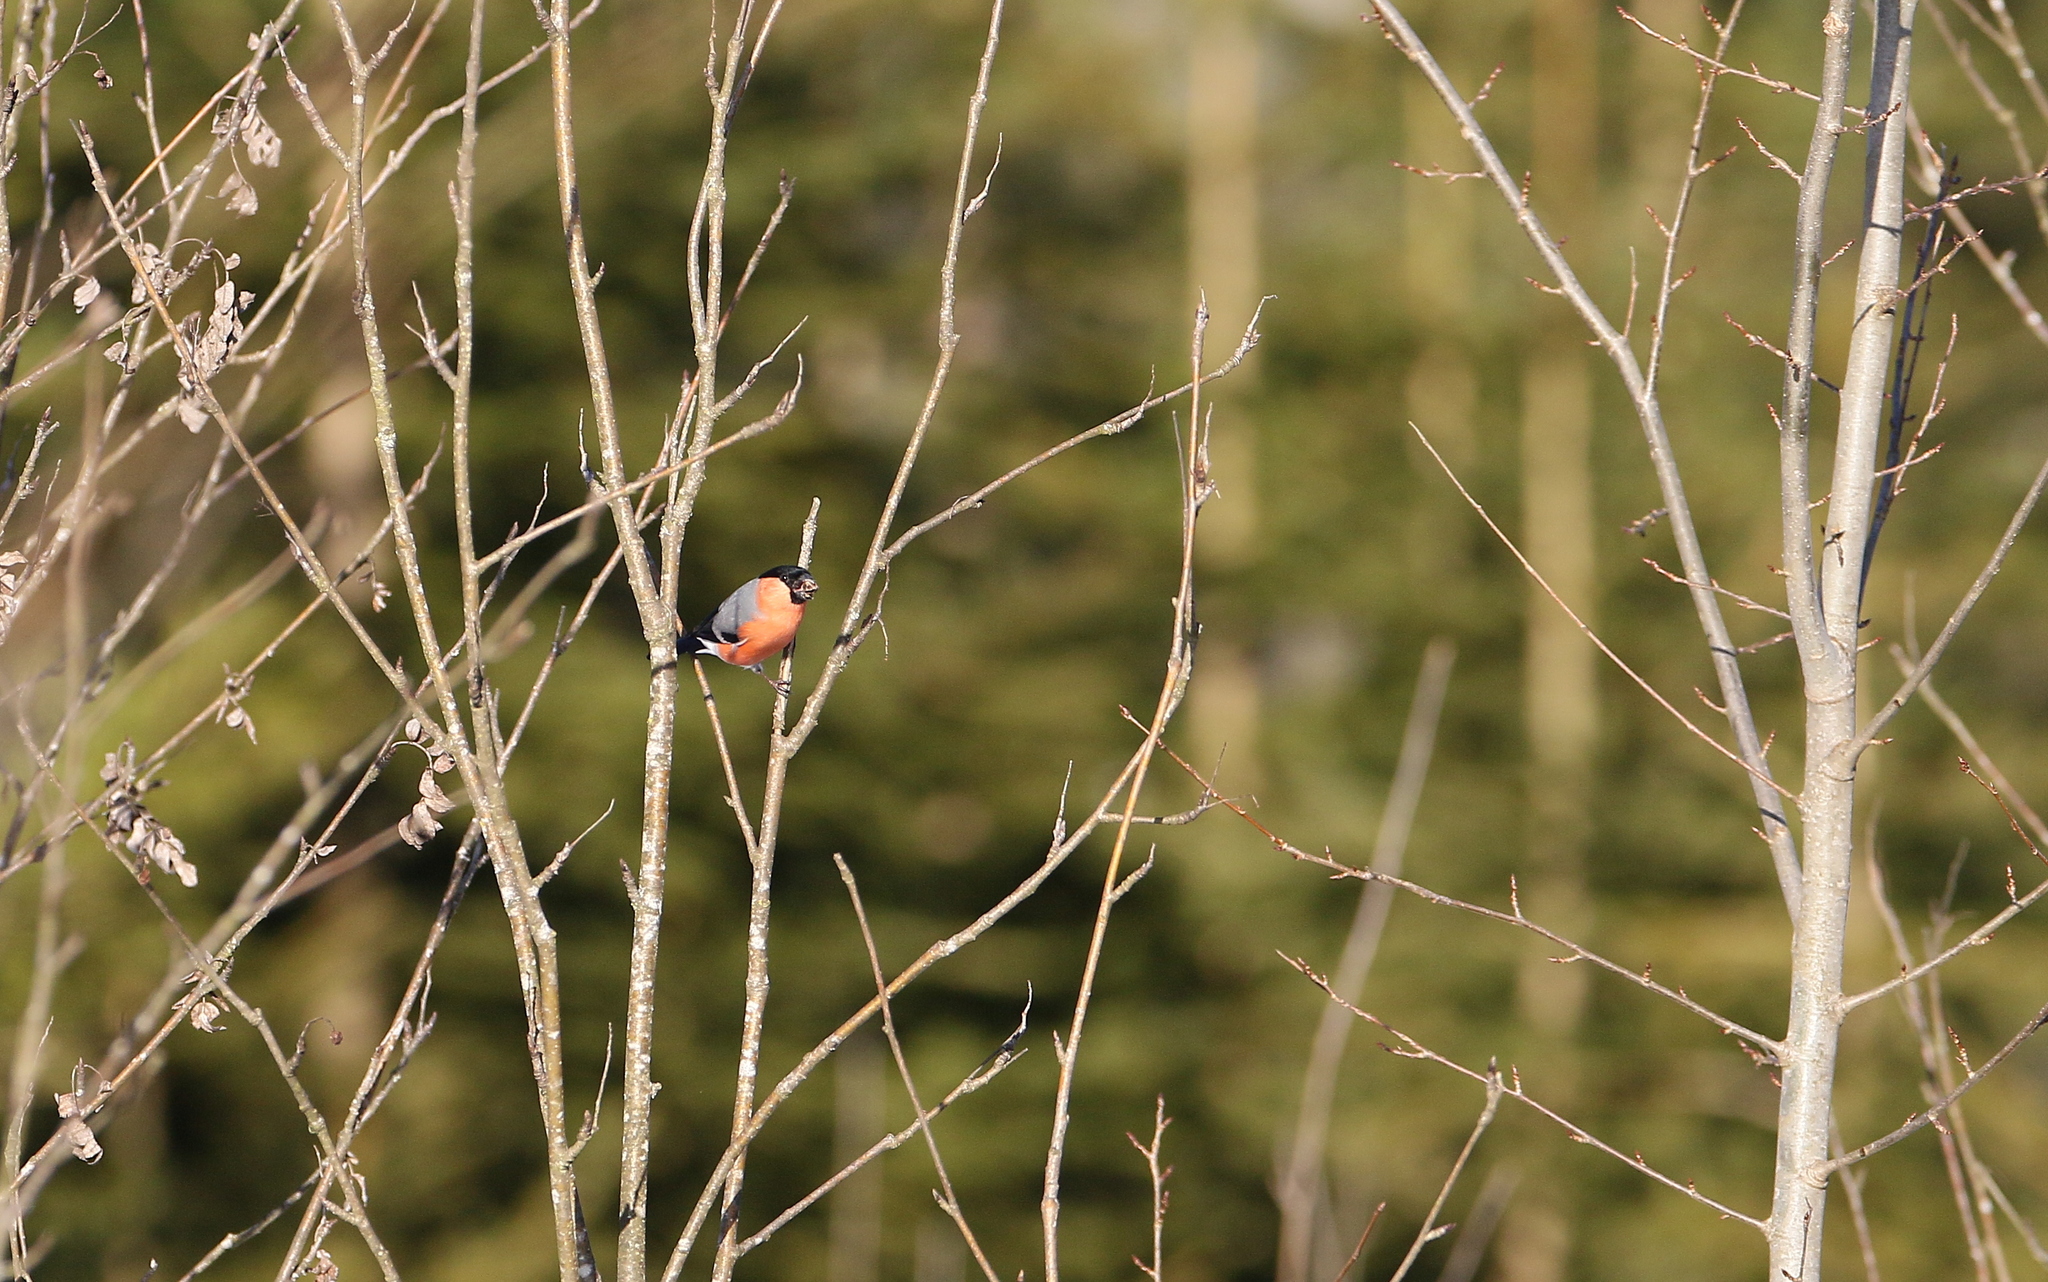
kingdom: Animalia
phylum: Chordata
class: Aves
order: Passeriformes
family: Fringillidae
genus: Pyrrhula
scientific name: Pyrrhula pyrrhula
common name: Eurasian bullfinch
